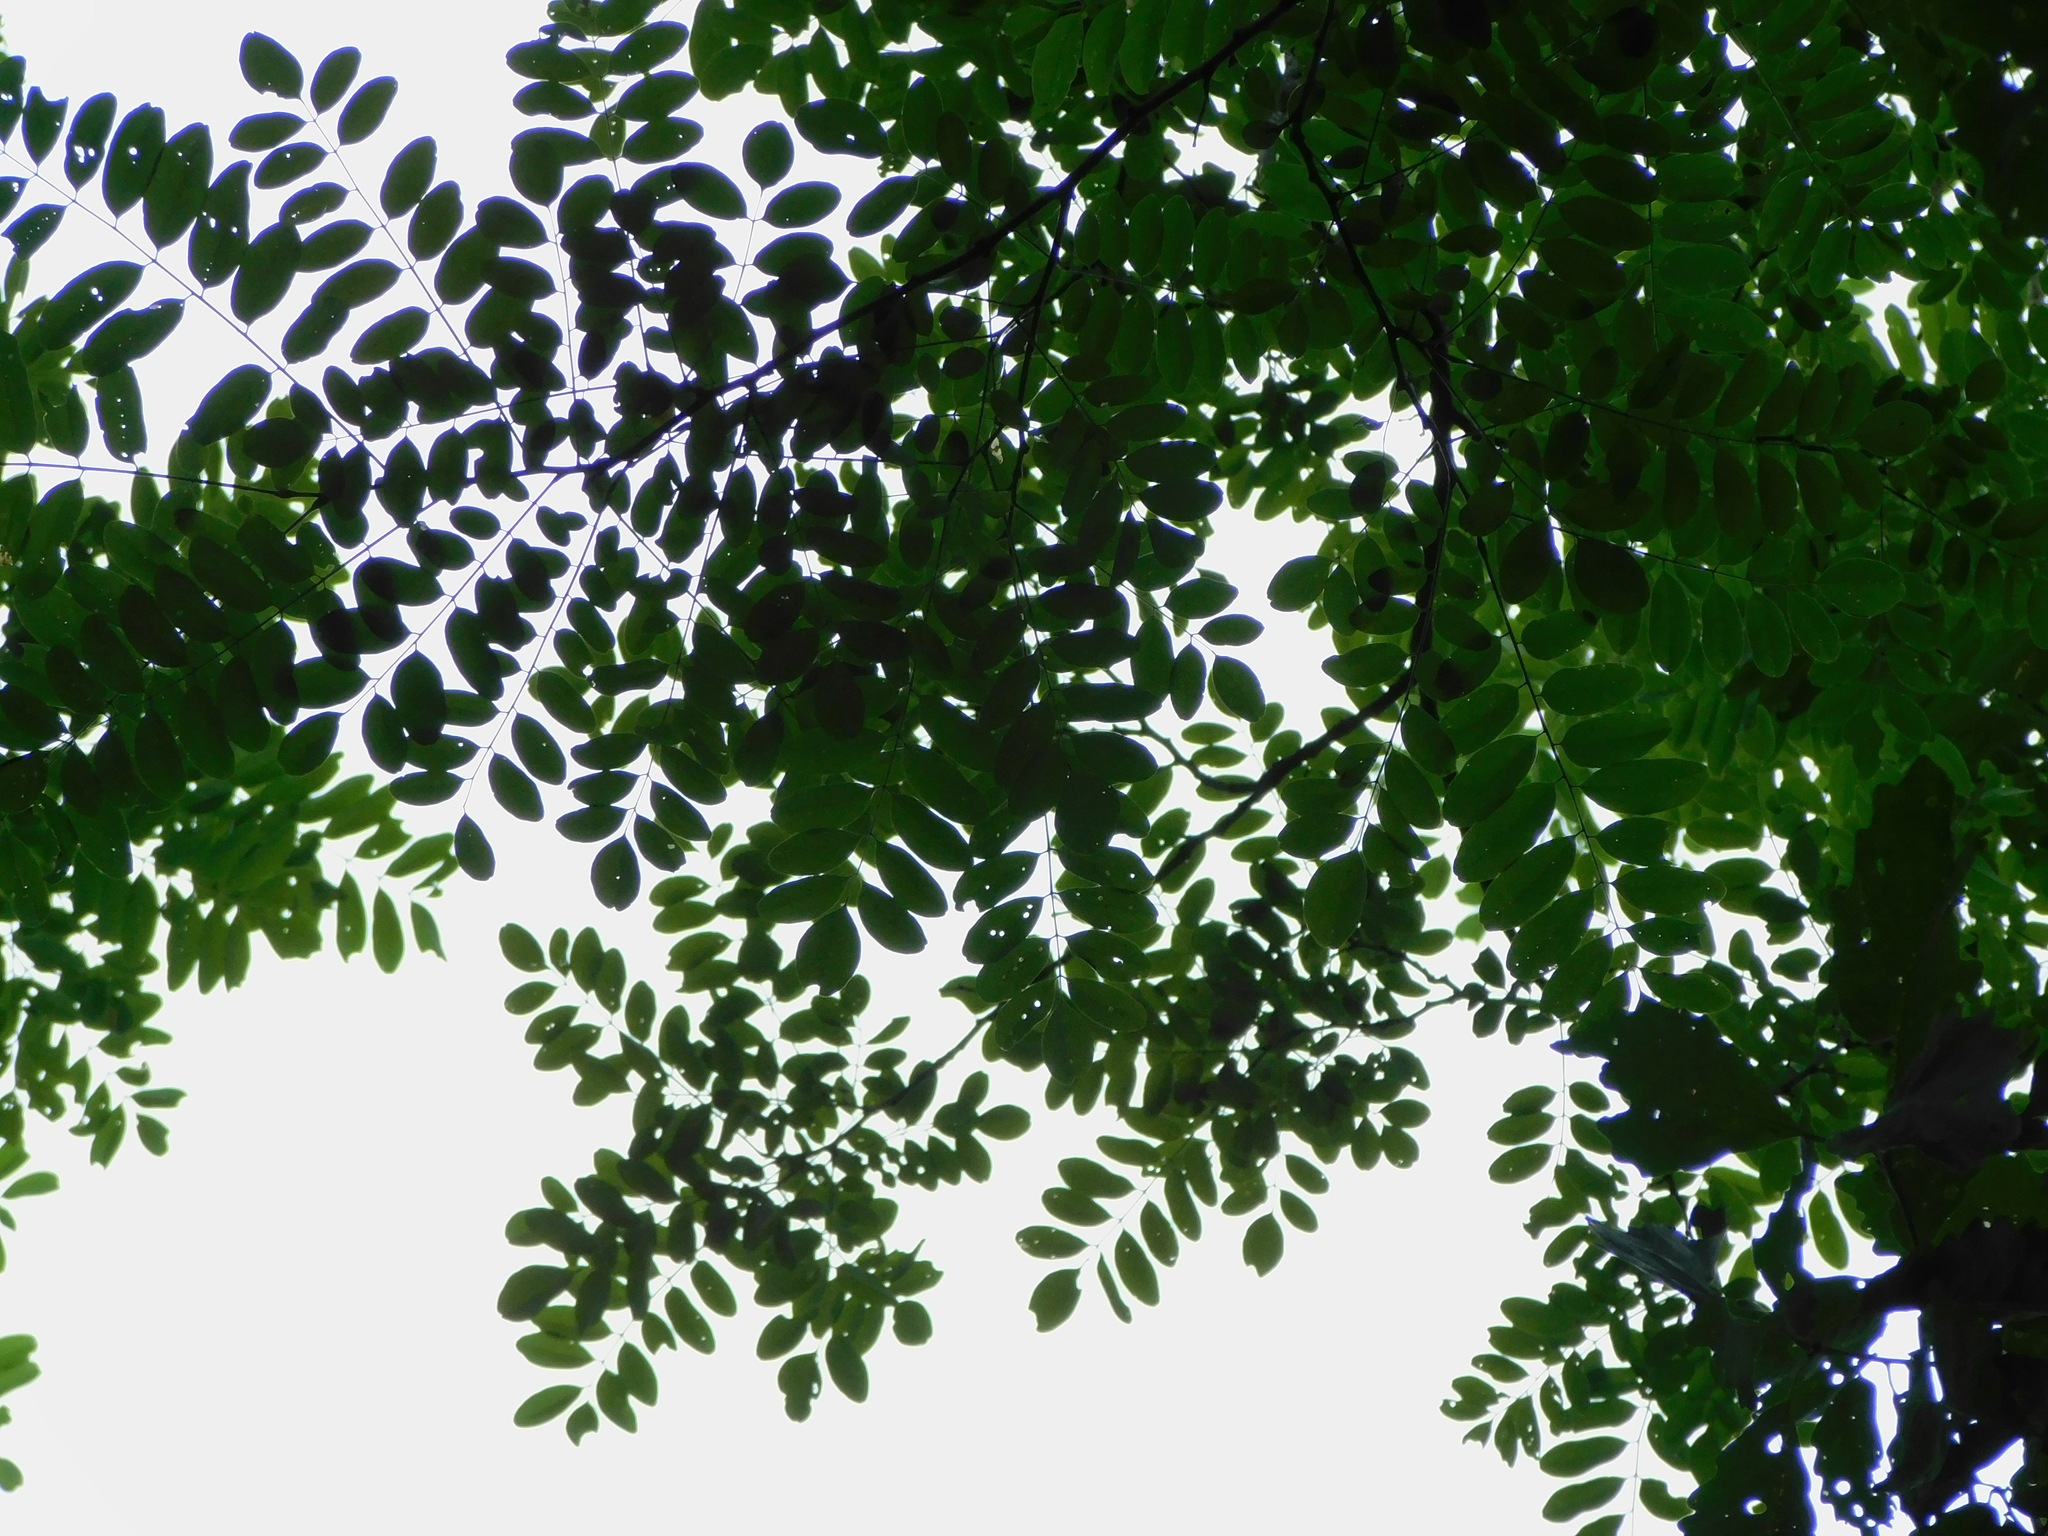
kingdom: Plantae
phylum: Tracheophyta
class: Magnoliopsida
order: Fabales
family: Fabaceae
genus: Robinia
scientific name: Robinia pseudoacacia
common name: Black locust
